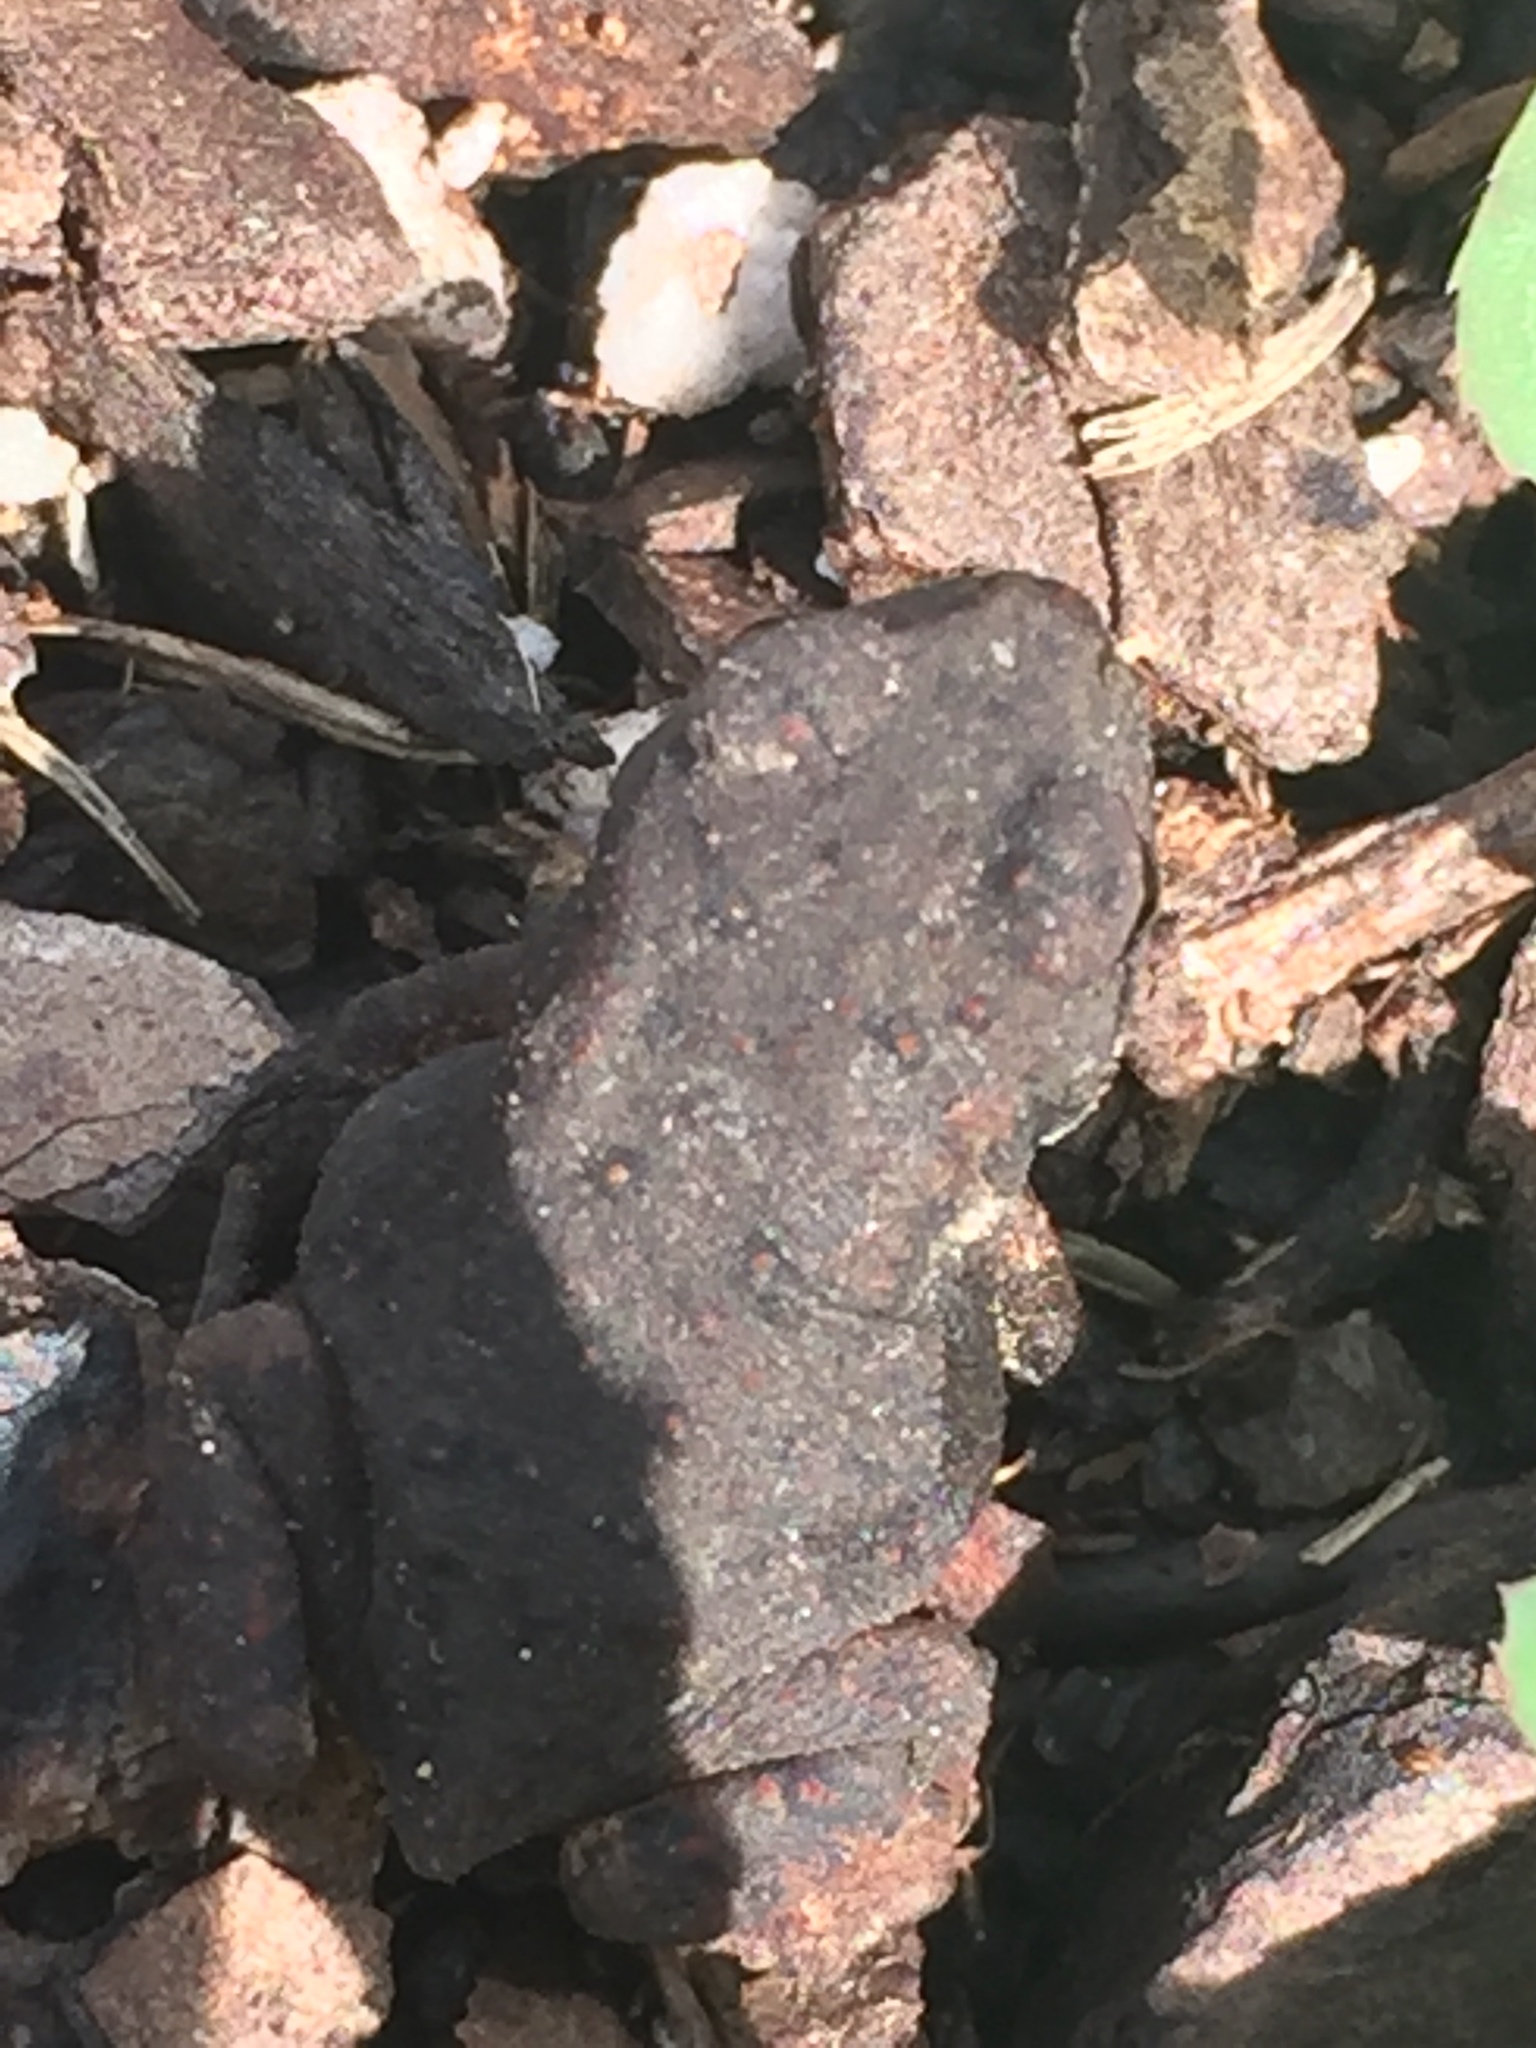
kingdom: Animalia
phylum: Chordata
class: Amphibia
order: Anura
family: Bufonidae
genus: Anaxyrus
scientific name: Anaxyrus americanus
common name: American toad
